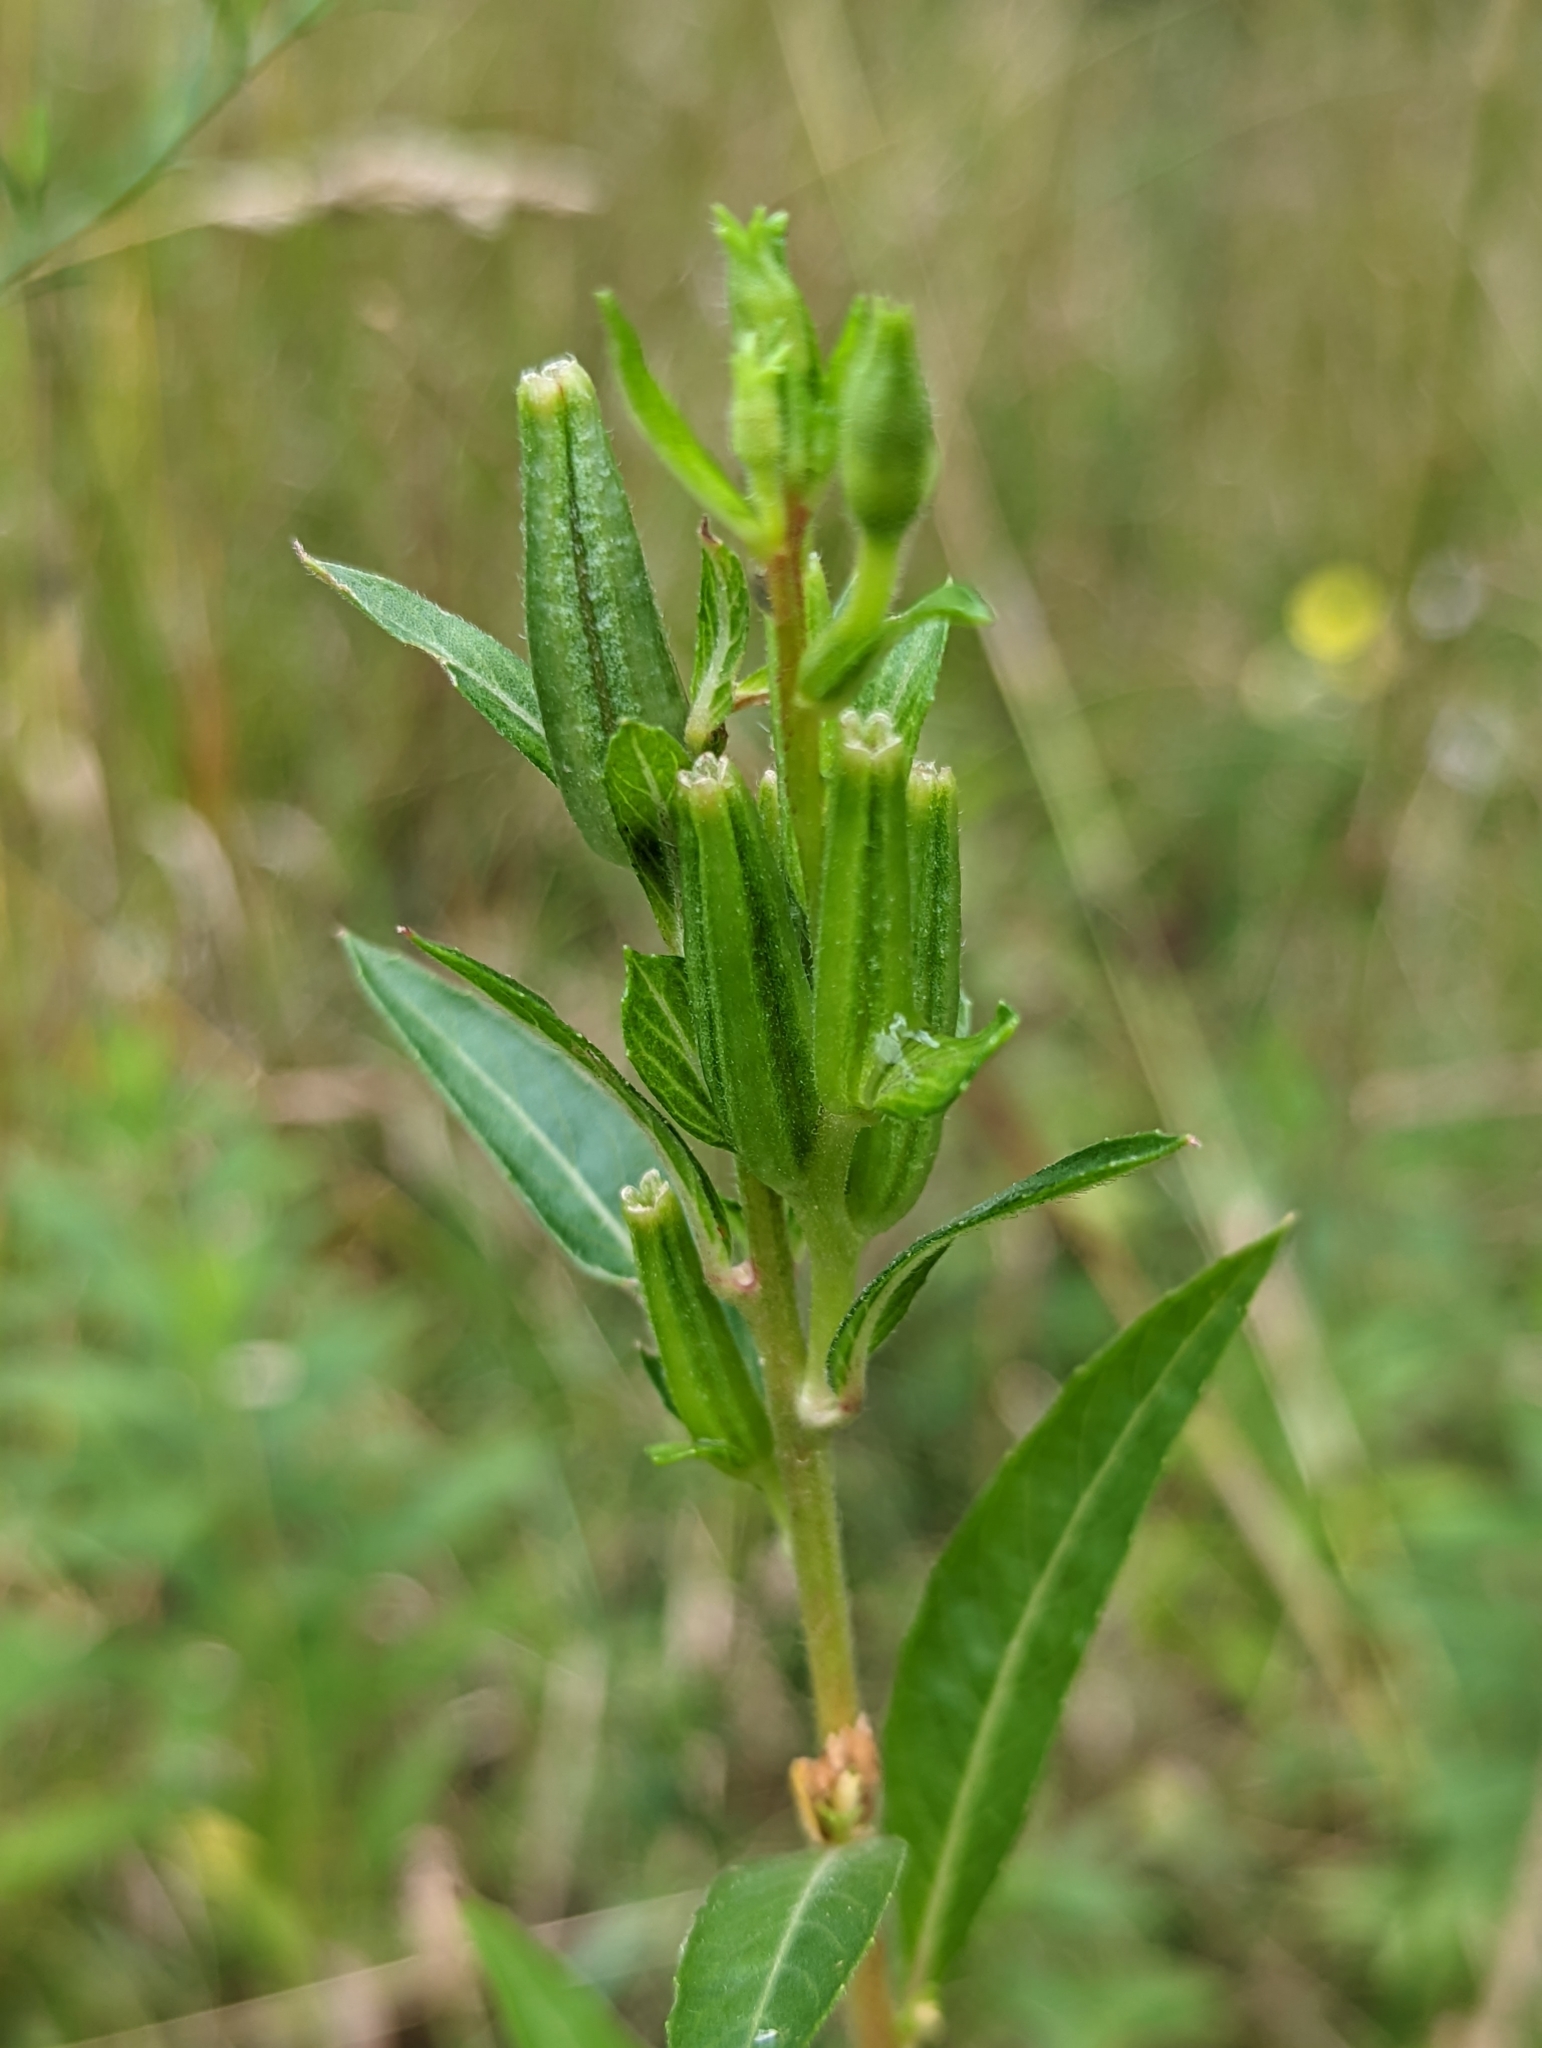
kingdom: Plantae
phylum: Tracheophyta
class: Magnoliopsida
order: Myrtales
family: Onagraceae
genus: Oenothera
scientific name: Oenothera perennis
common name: Small sundrops
